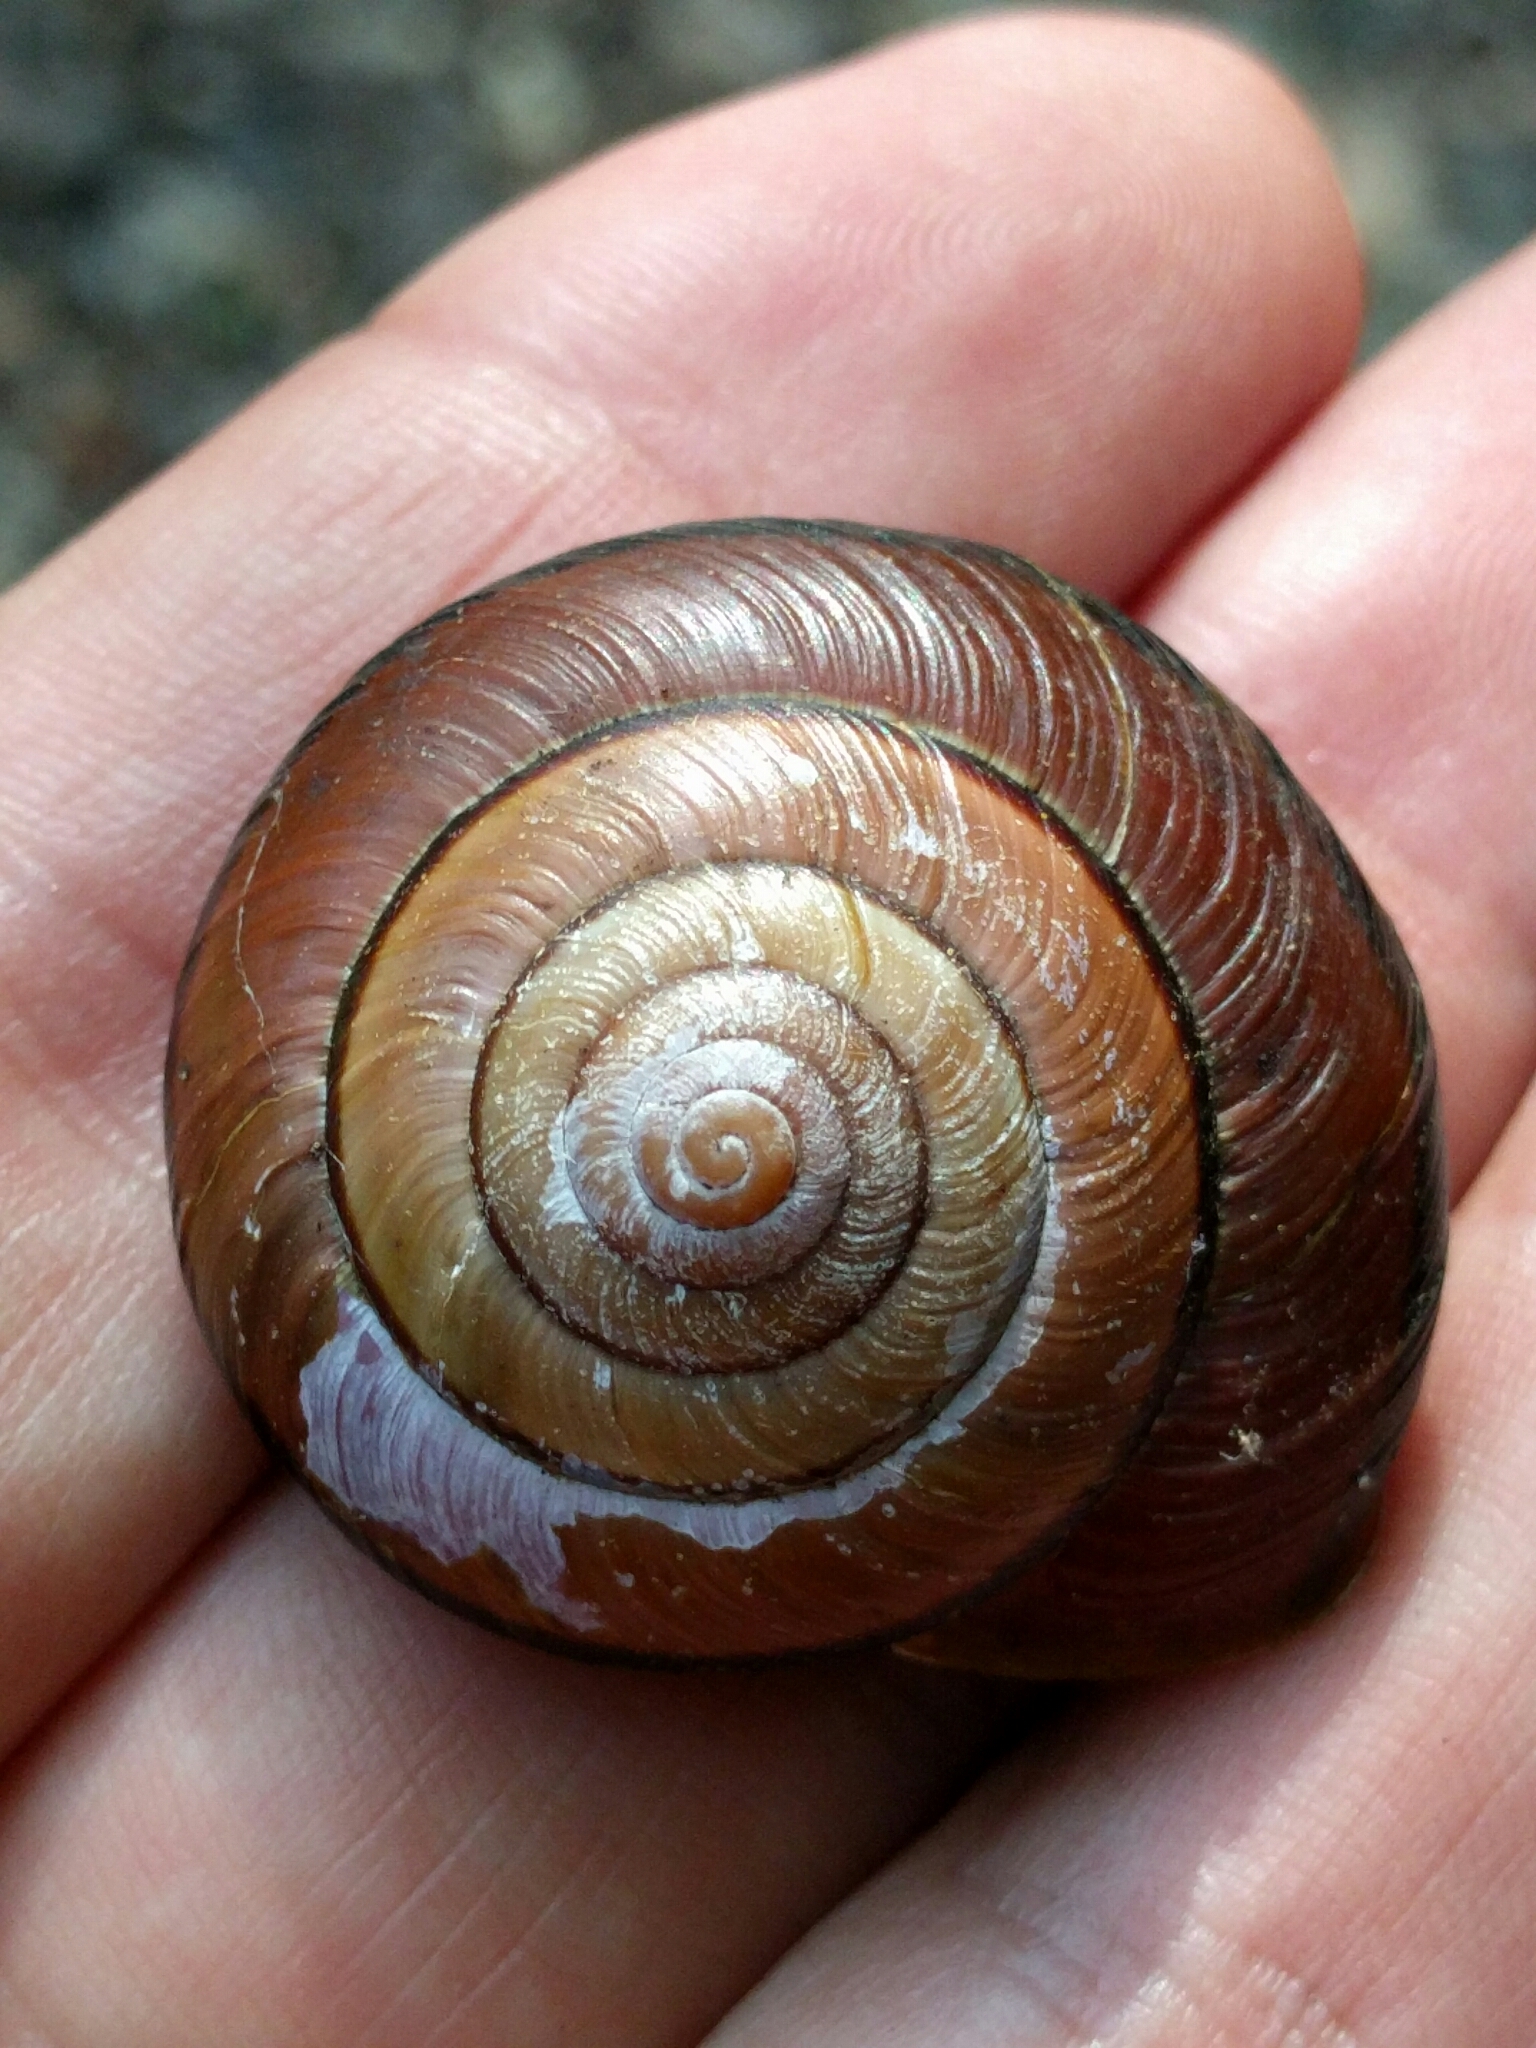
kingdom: Animalia
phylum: Mollusca
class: Gastropoda
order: Stylommatophora
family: Xanthonychidae
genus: Monadenia
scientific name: Monadenia fidelis
